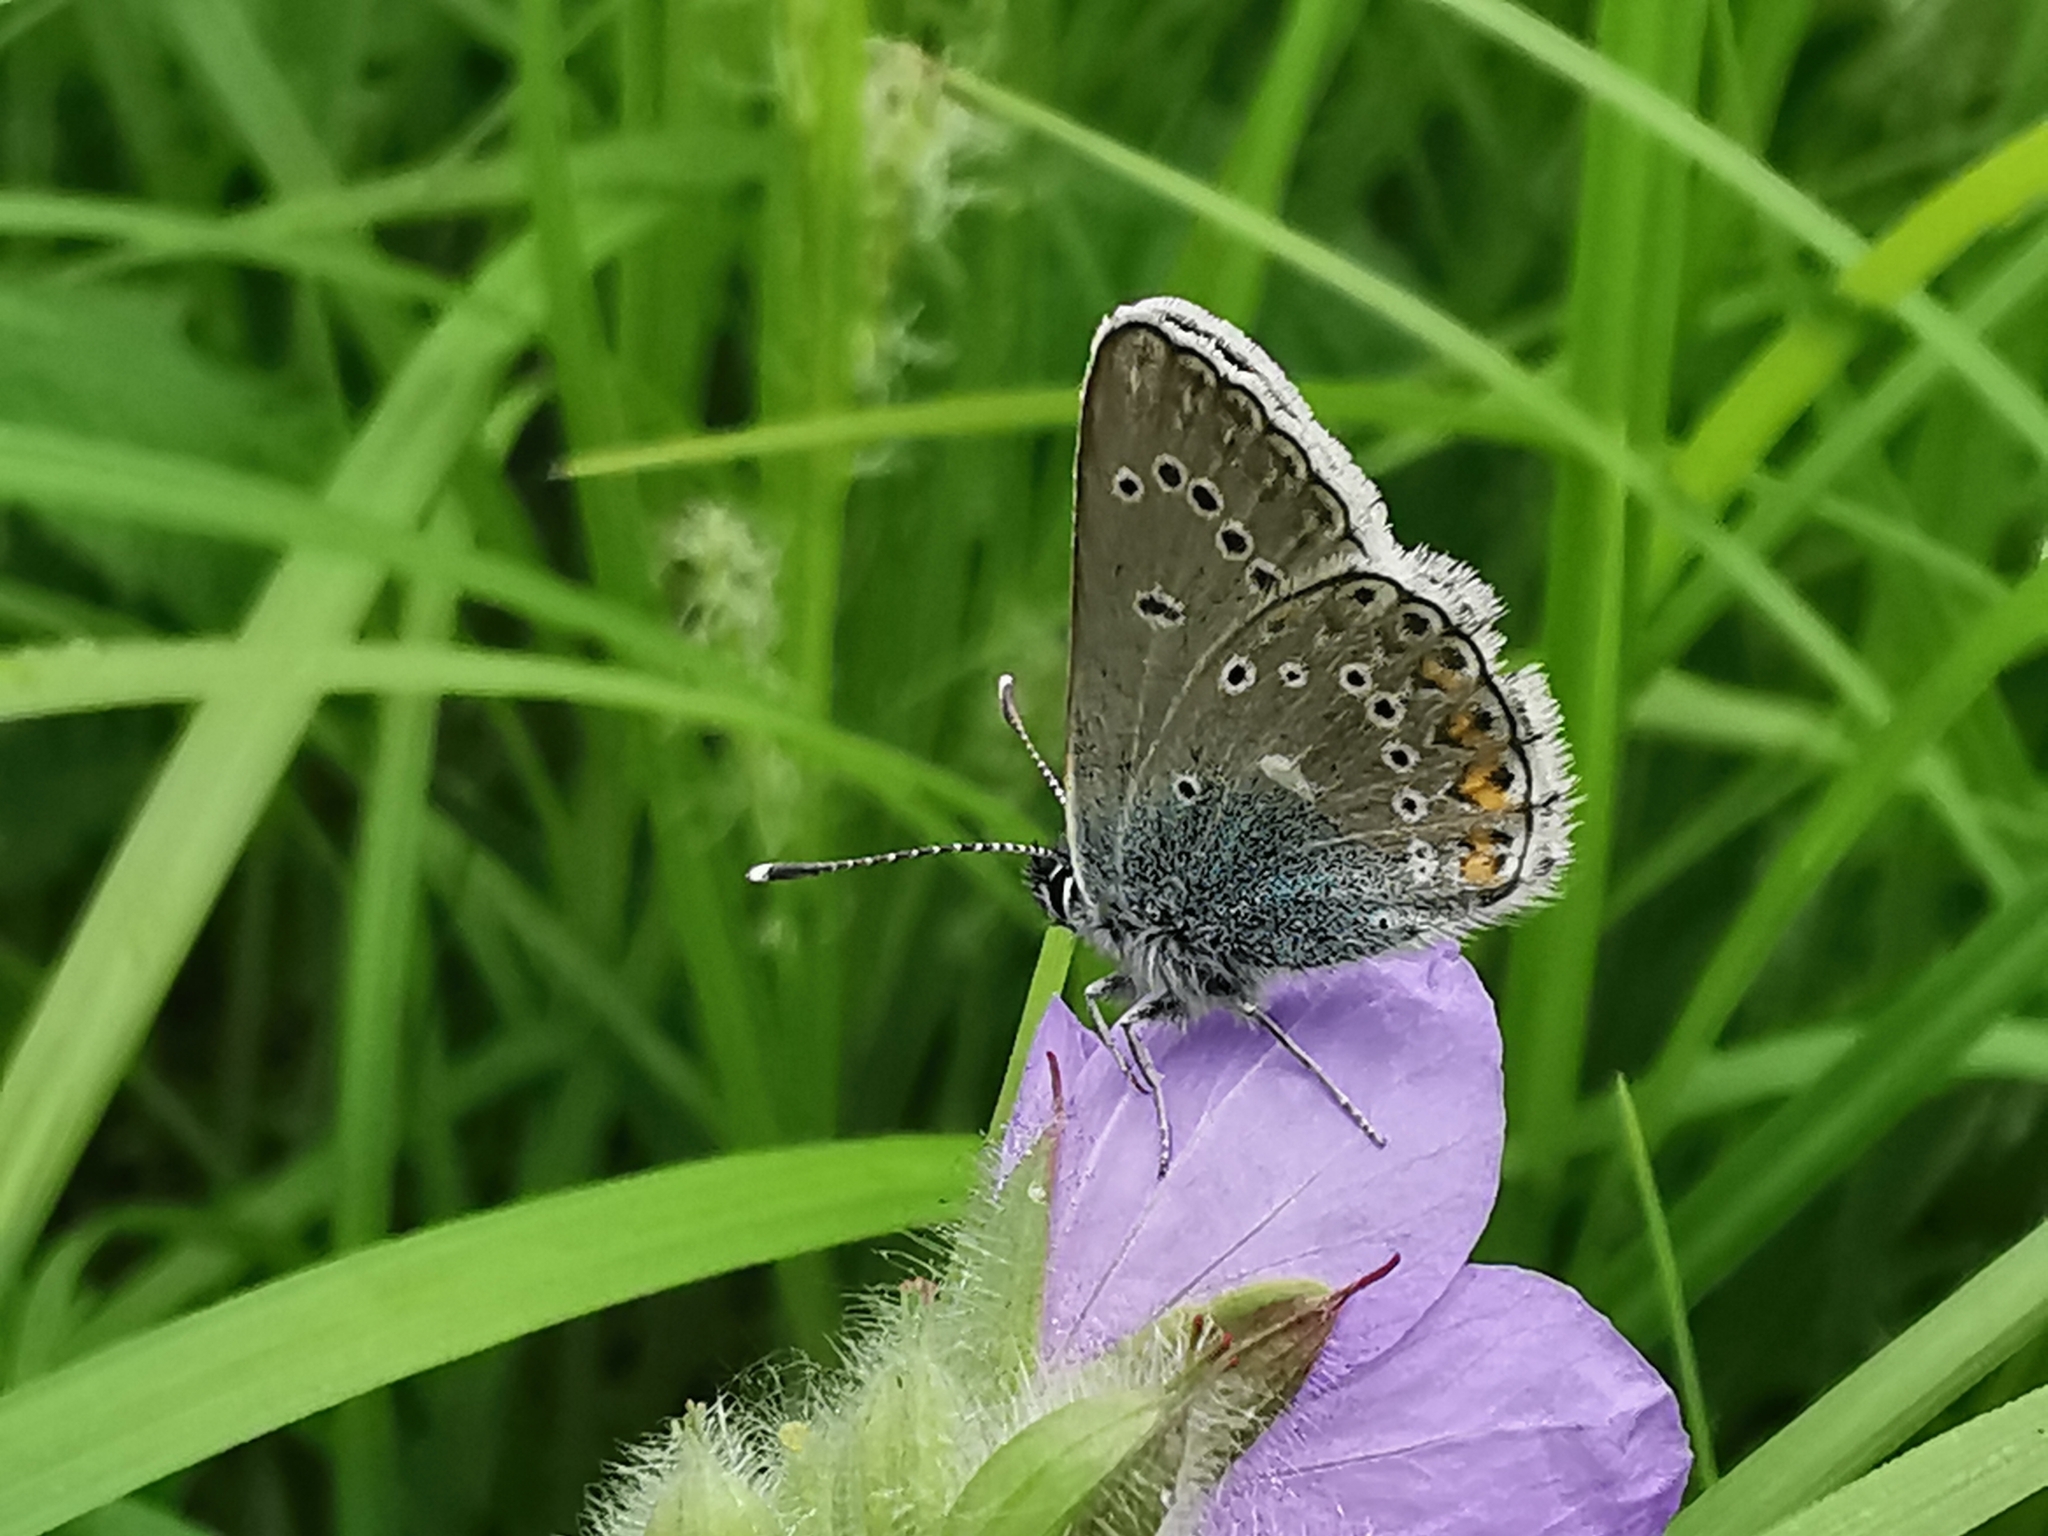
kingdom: Animalia
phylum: Arthropoda
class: Insecta
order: Lepidoptera
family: Lycaenidae
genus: Eumedonia
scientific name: Eumedonia eumedon
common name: Geranium argus
